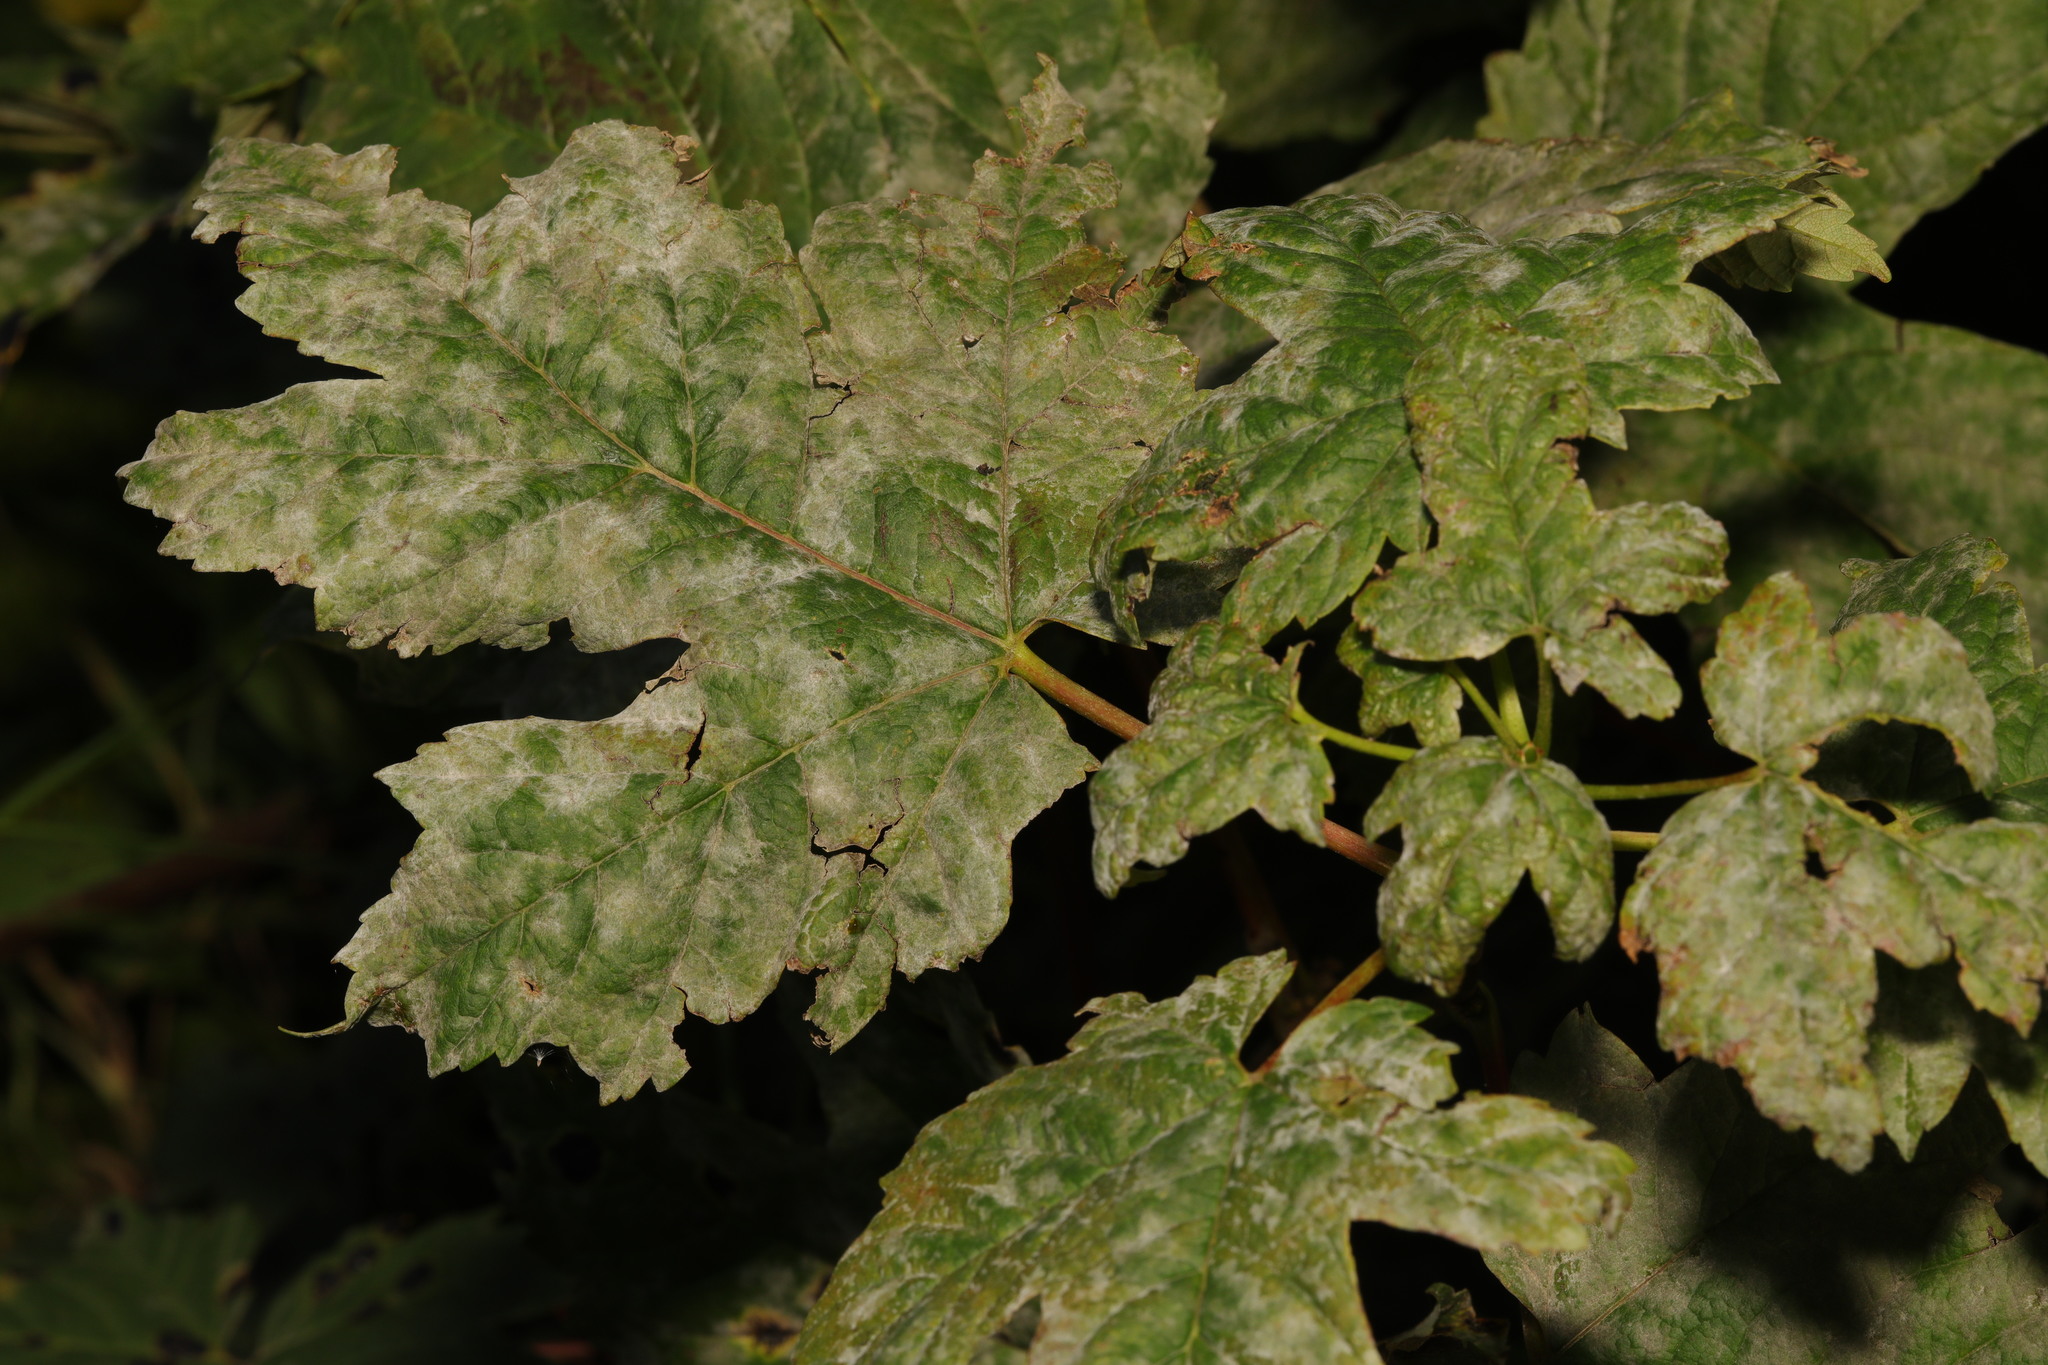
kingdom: Plantae
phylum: Tracheophyta
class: Magnoliopsida
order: Sapindales
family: Sapindaceae
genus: Acer
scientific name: Acer pseudoplatanus
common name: Sycamore
